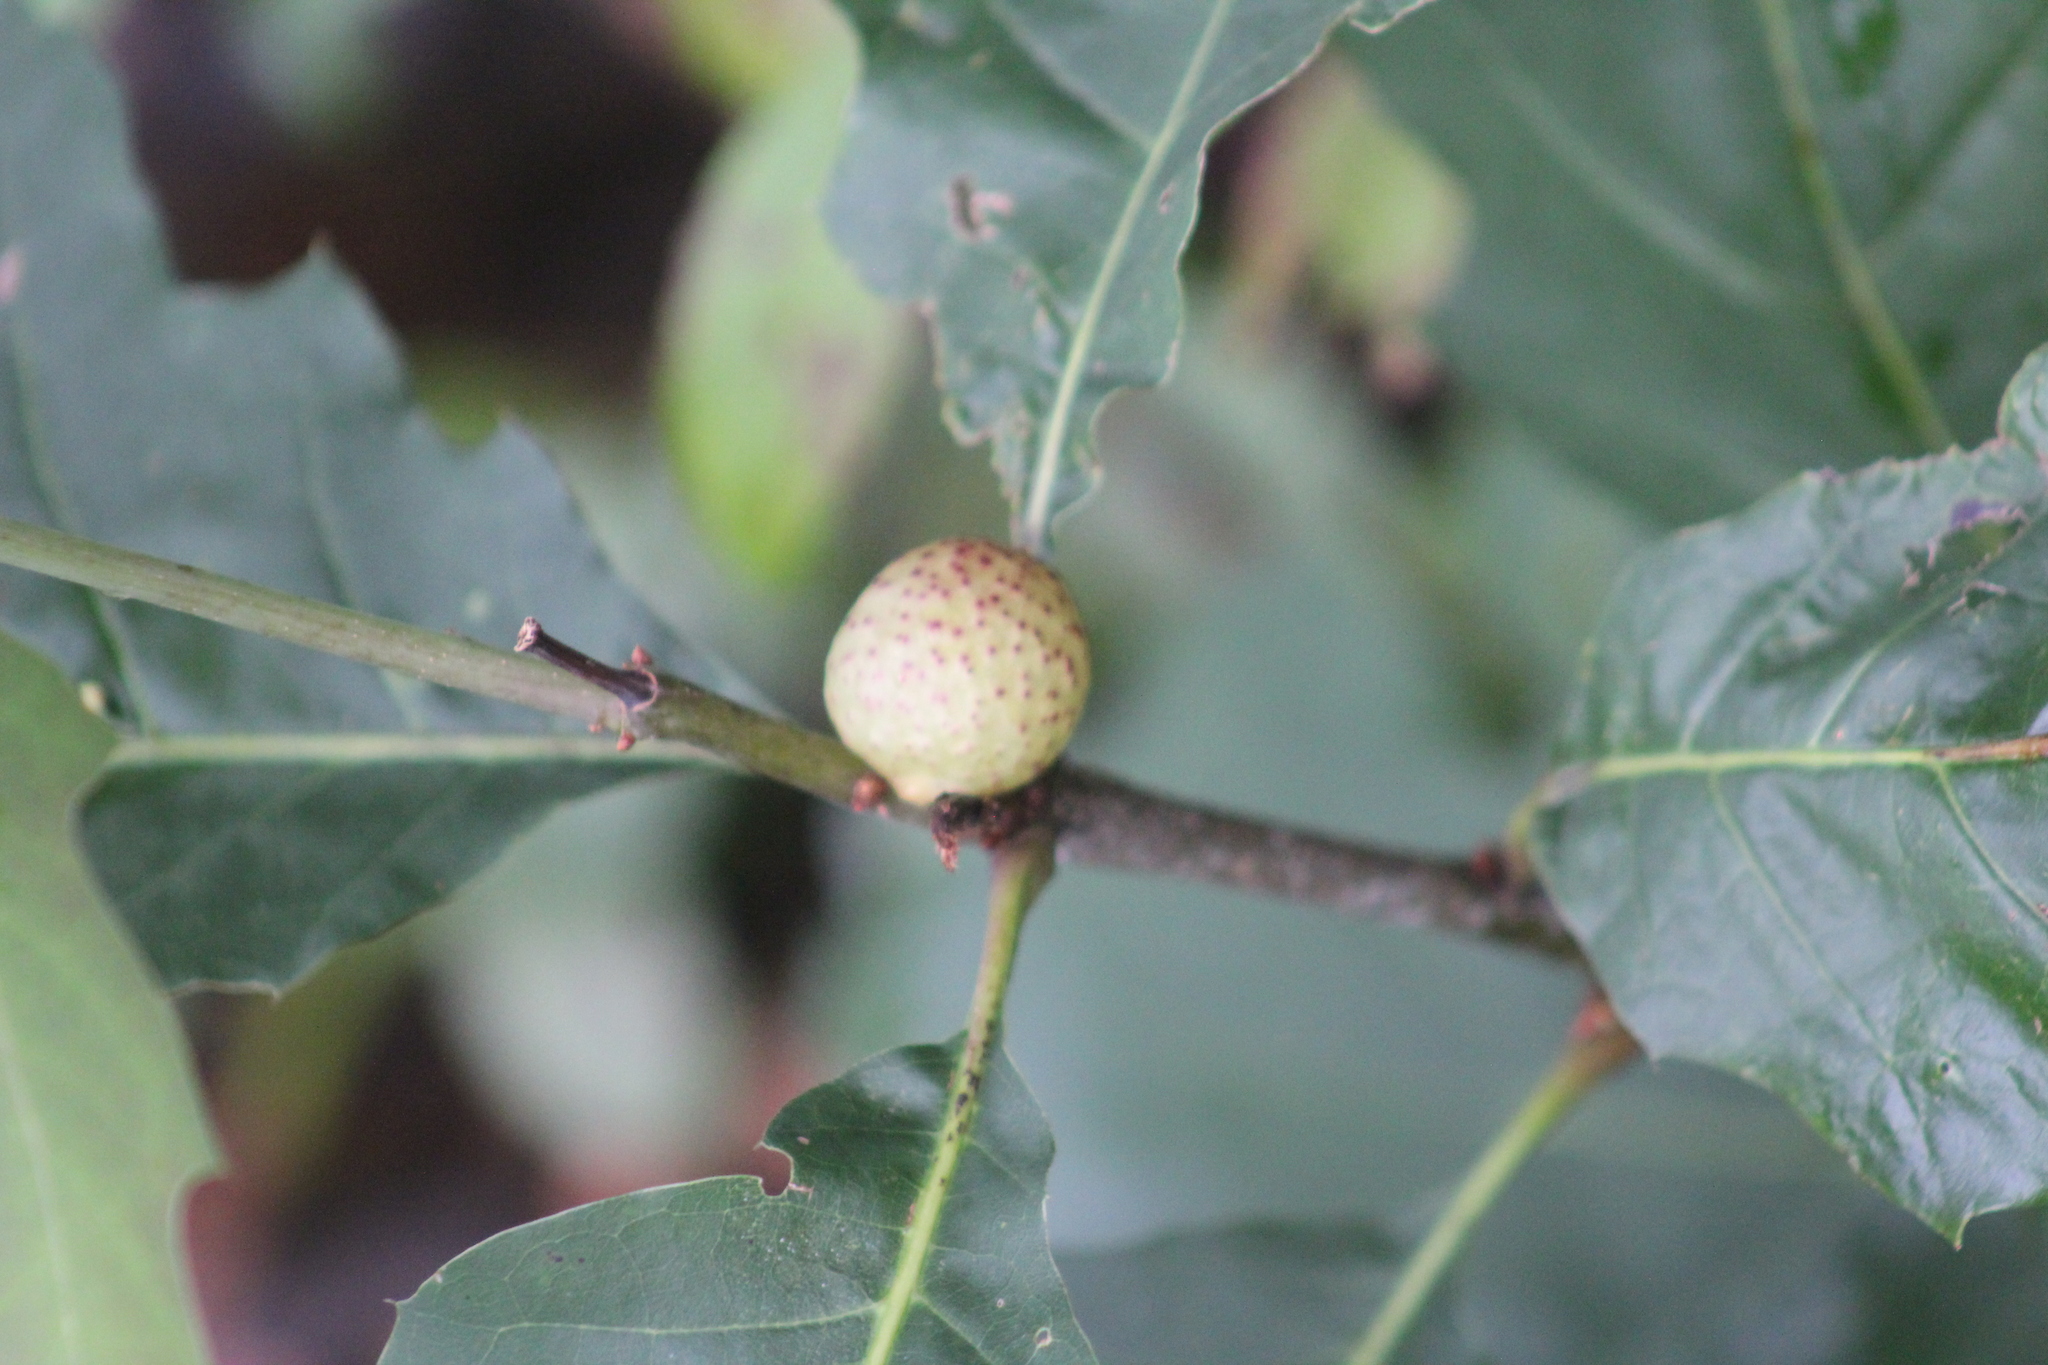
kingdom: Animalia
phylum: Arthropoda
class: Insecta
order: Hymenoptera
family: Cynipidae
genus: Amphibolips
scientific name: Amphibolips
